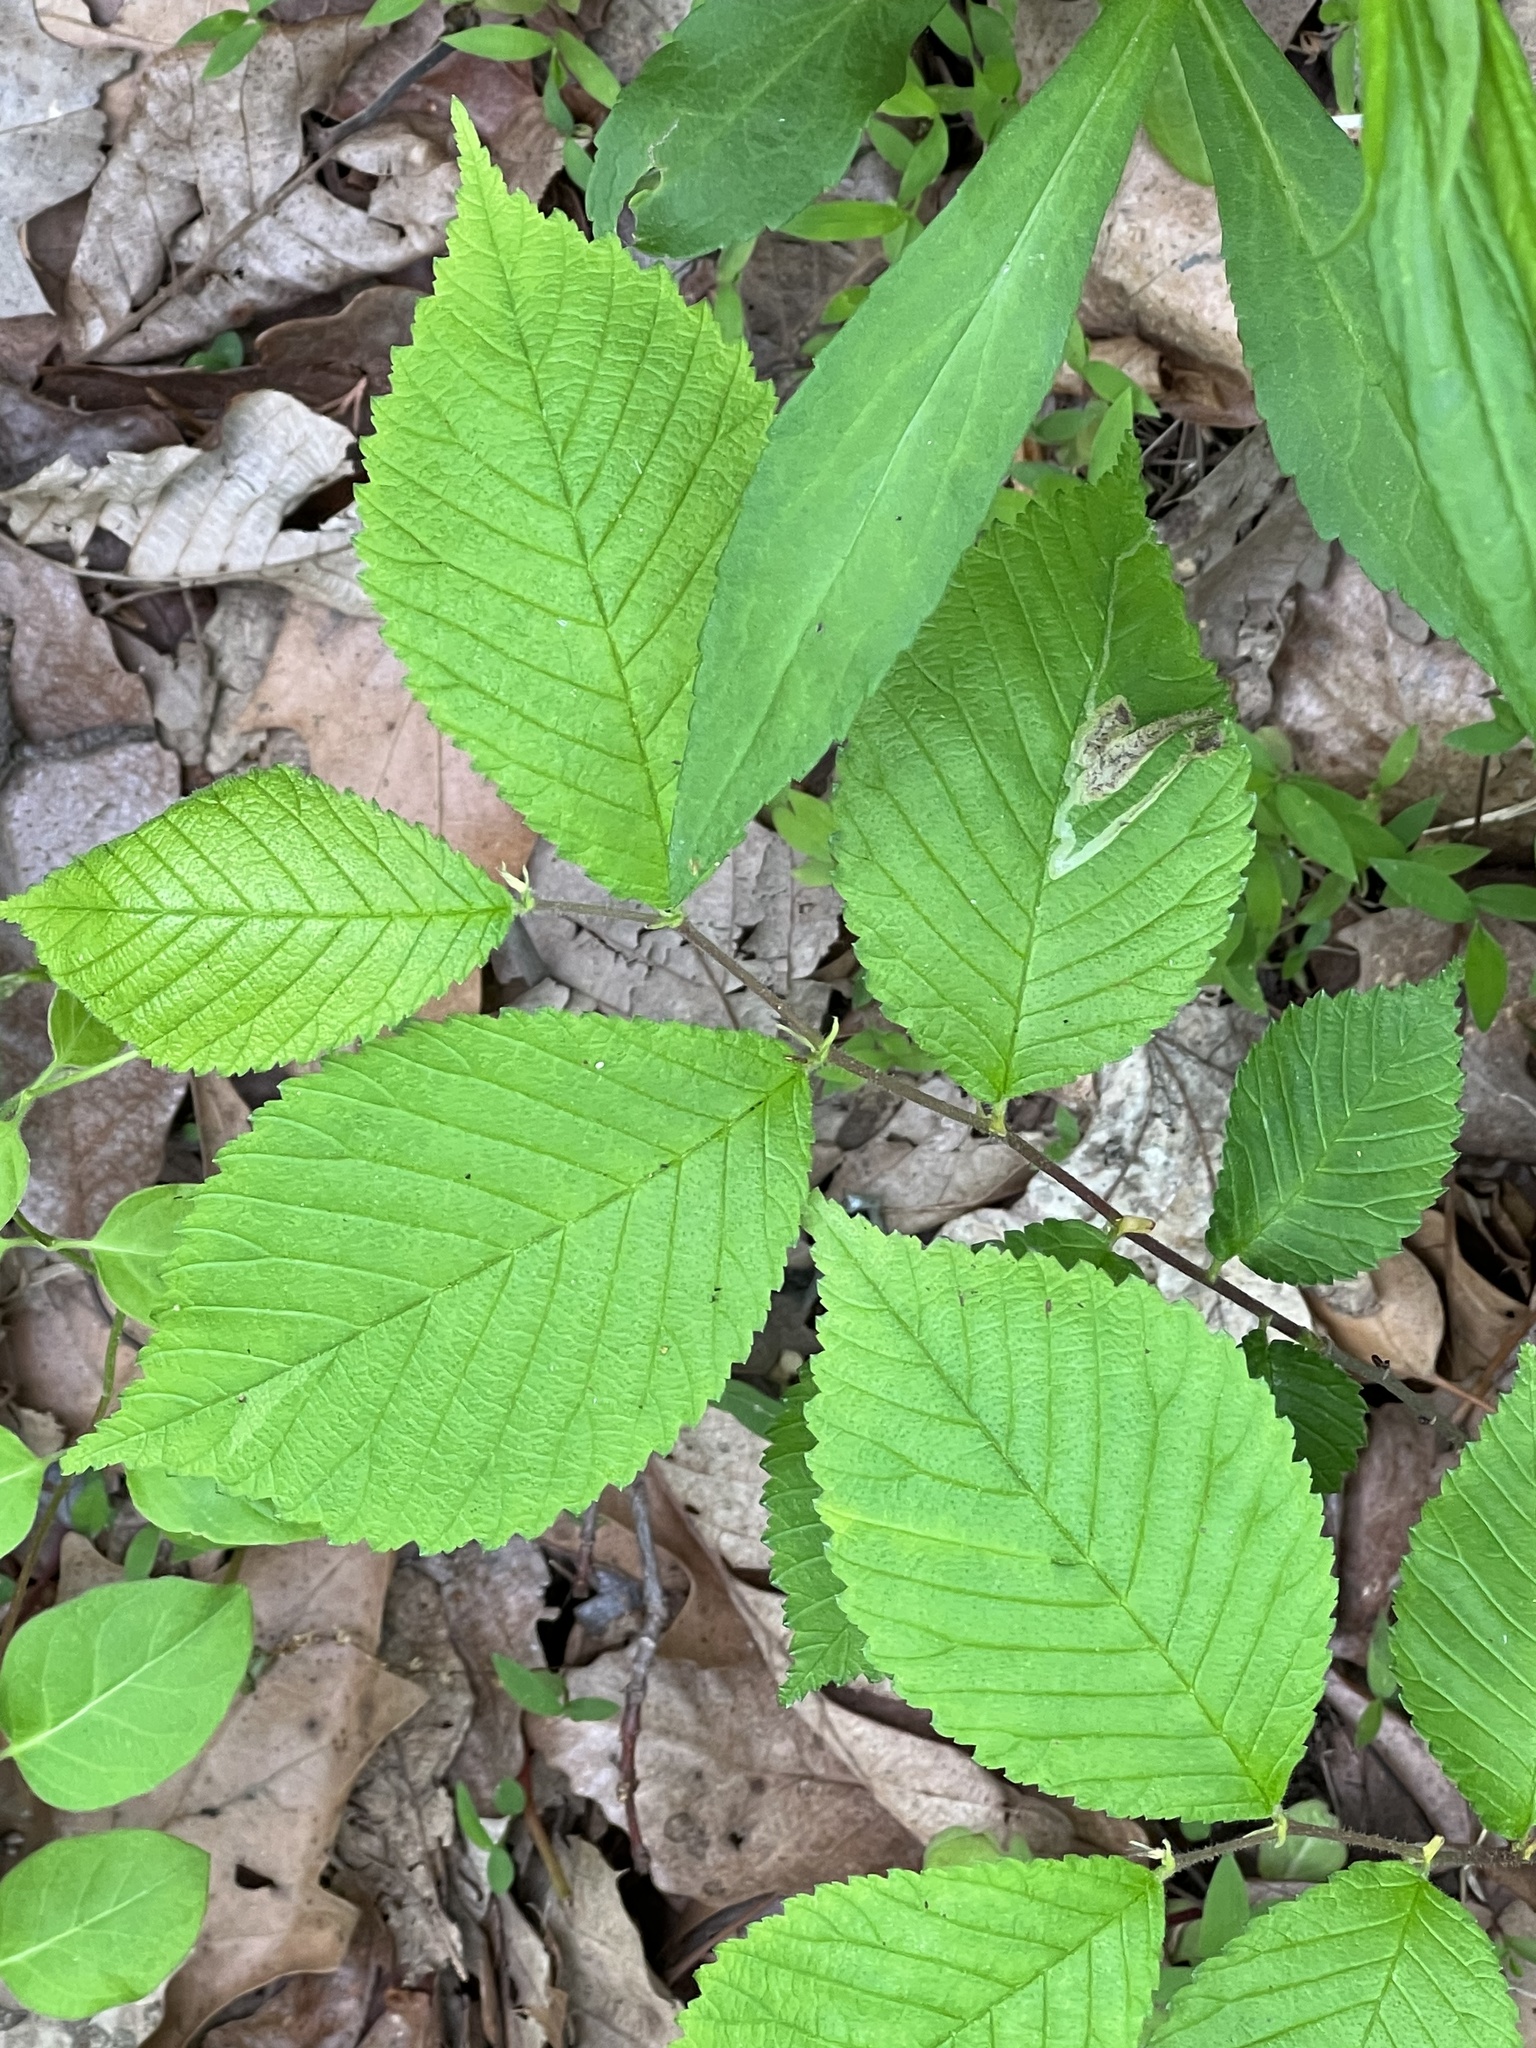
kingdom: Animalia
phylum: Arthropoda
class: Insecta
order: Diptera
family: Agromyzidae
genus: Agromyza
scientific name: Agromyza aristata
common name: Elm agromyzid leafminer
